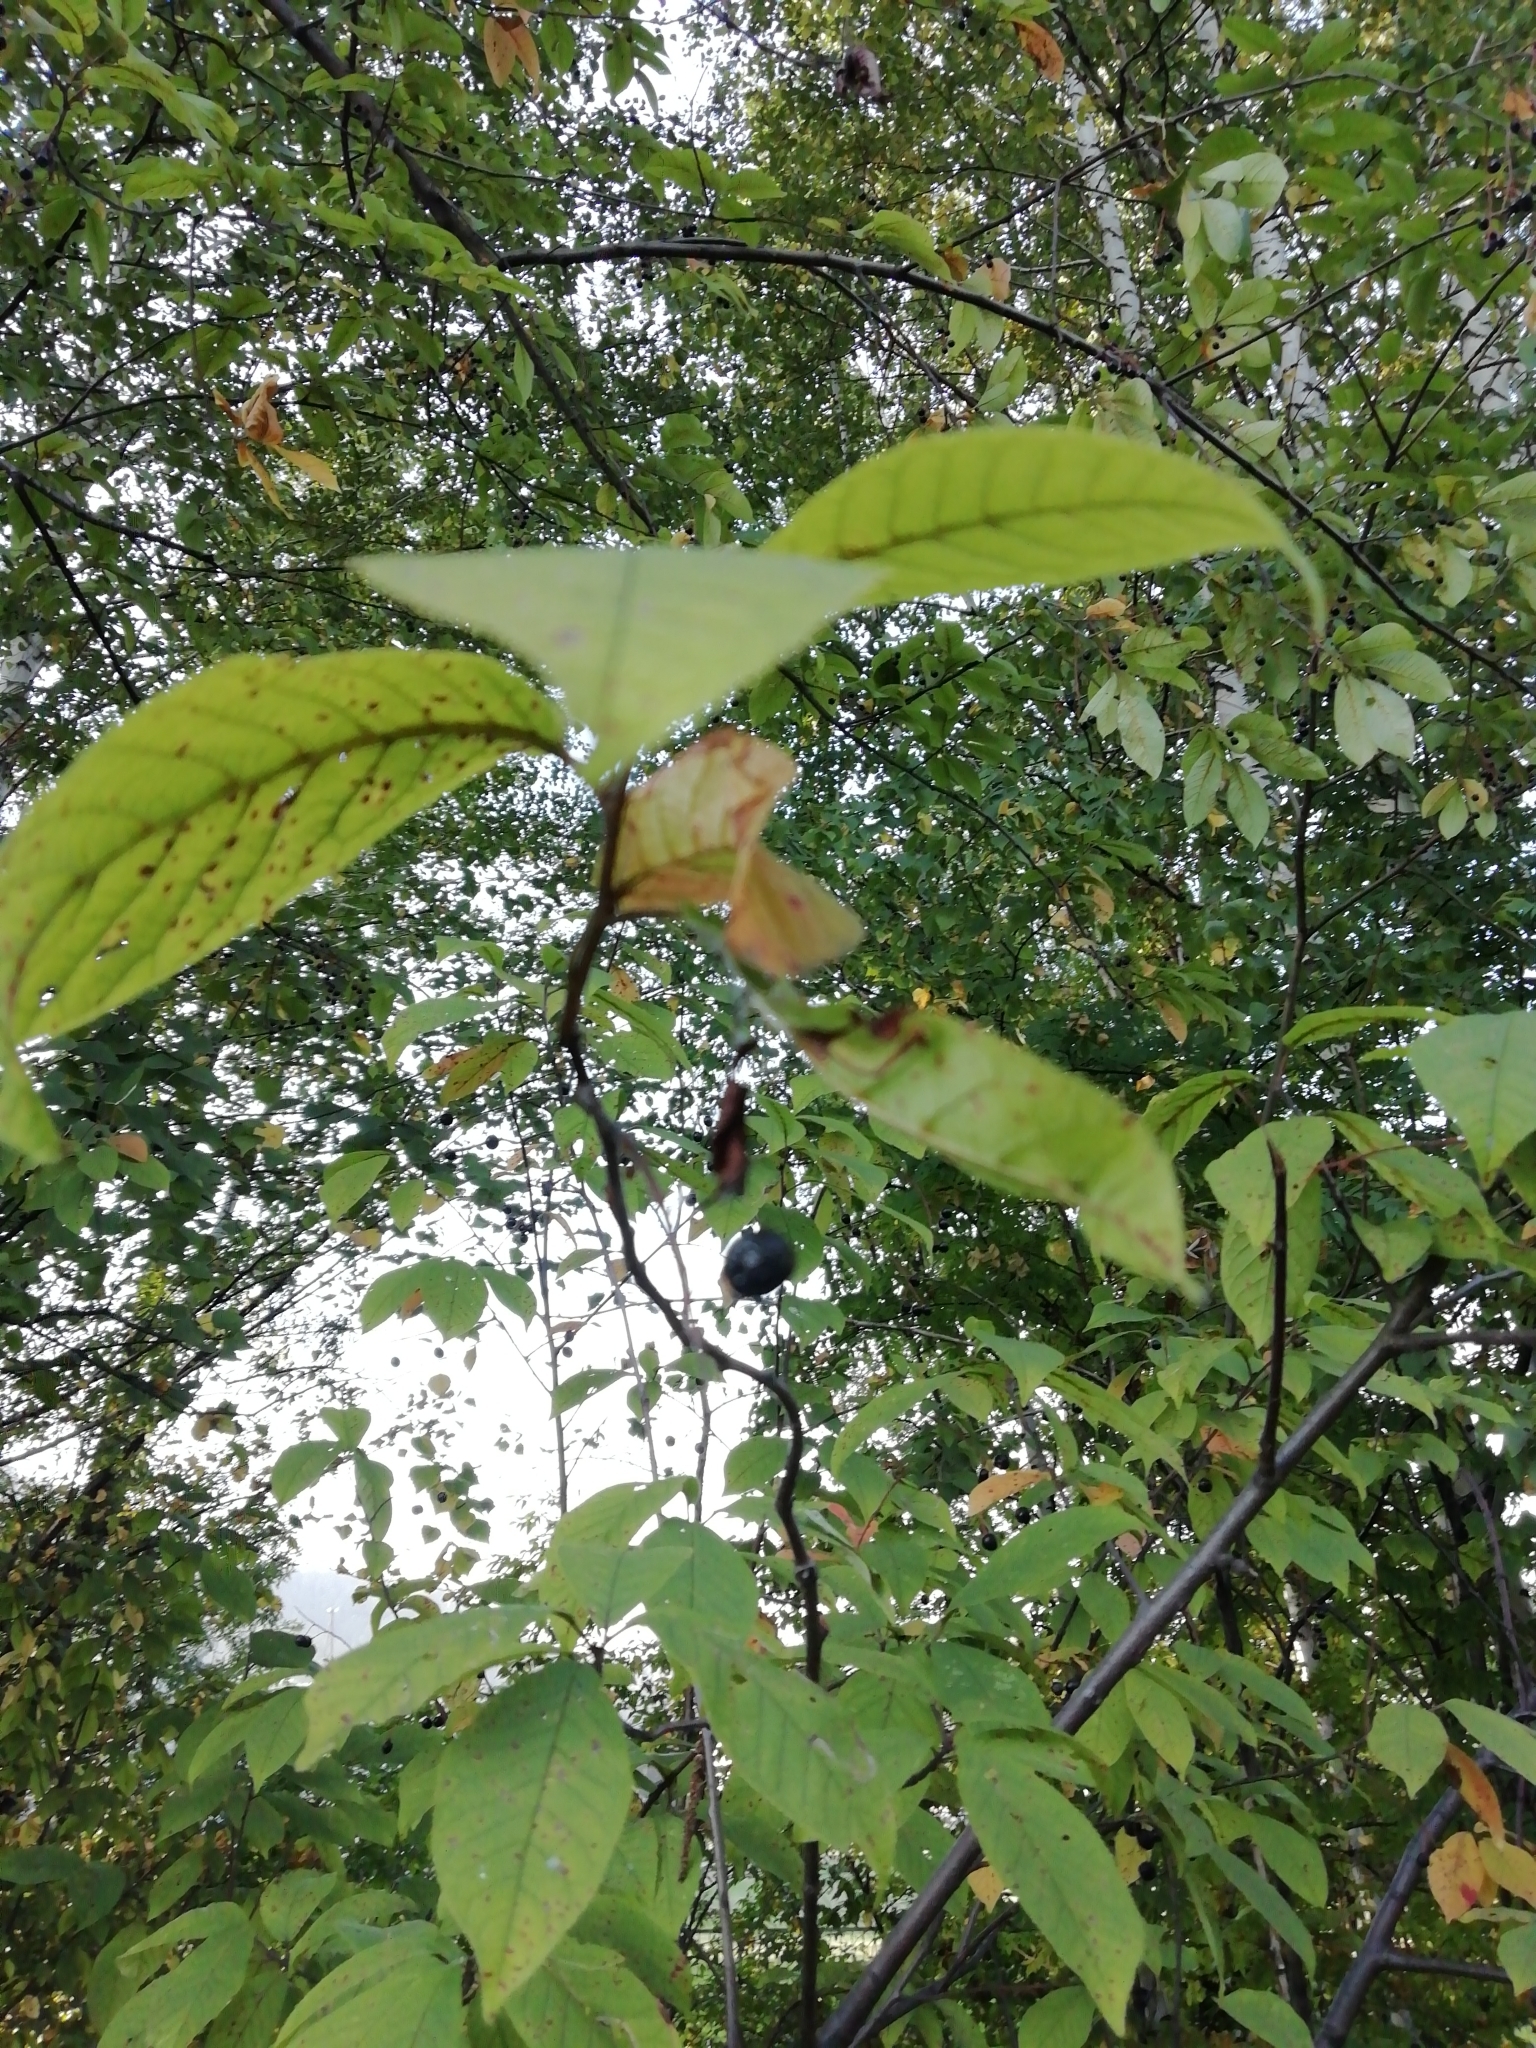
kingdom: Plantae
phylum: Tracheophyta
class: Magnoliopsida
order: Rosales
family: Rosaceae
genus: Prunus
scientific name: Prunus padus
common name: Bird cherry
